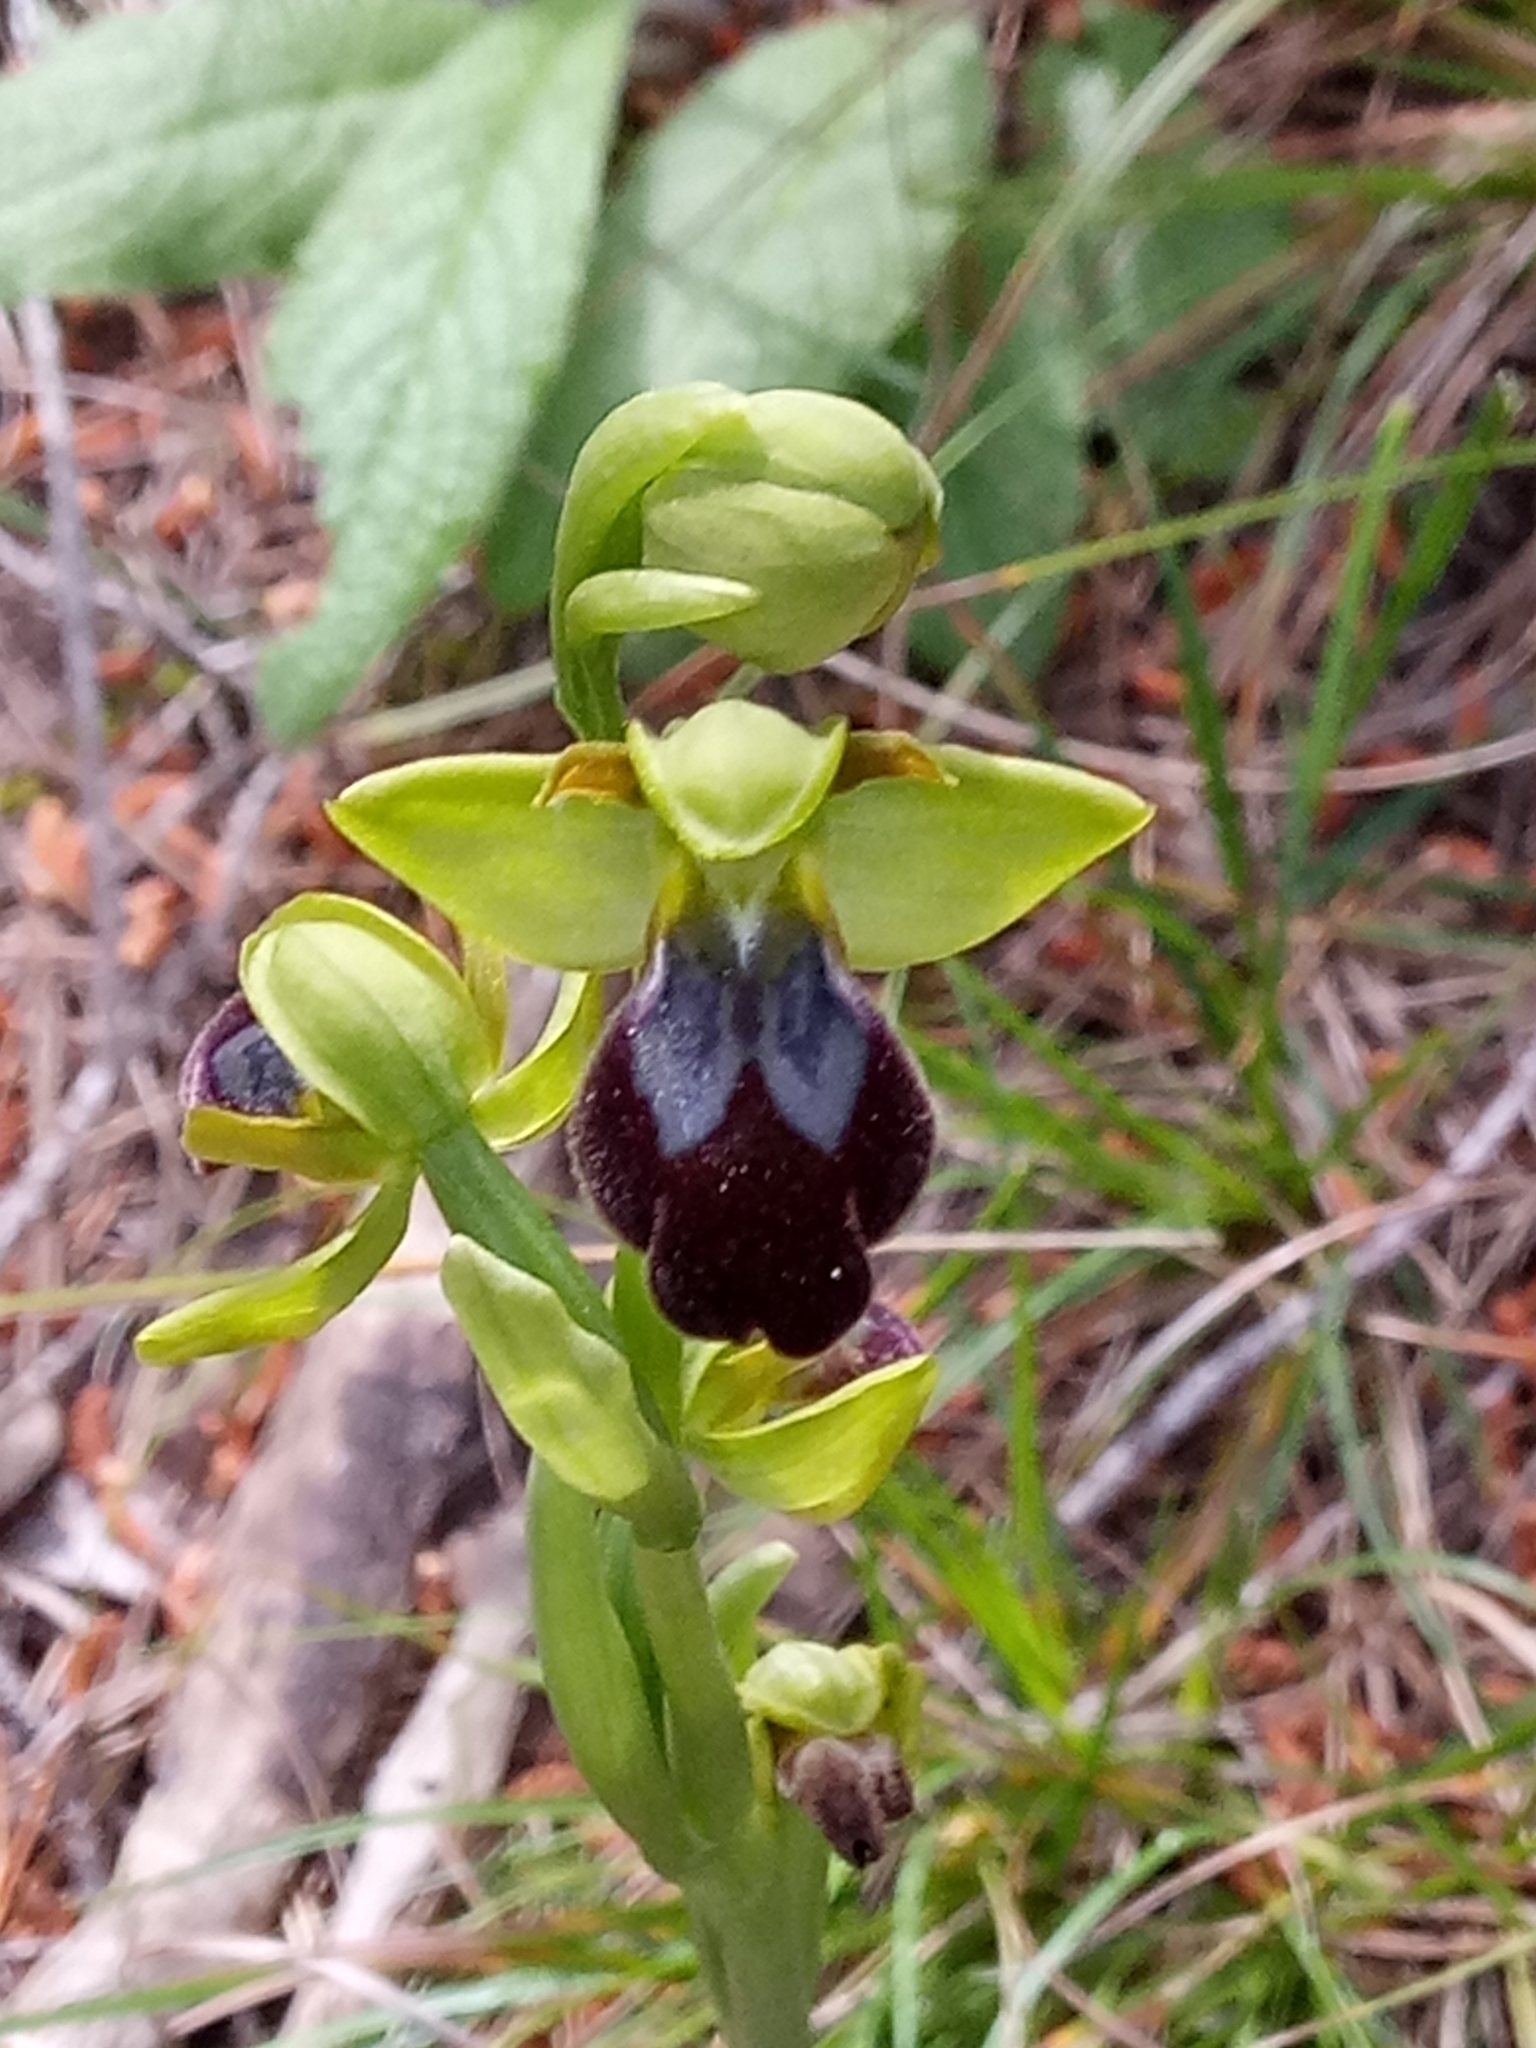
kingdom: Plantae
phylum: Tracheophyta
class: Liliopsida
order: Asparagales
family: Orchidaceae
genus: Ophrys
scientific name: Ophrys fusca
